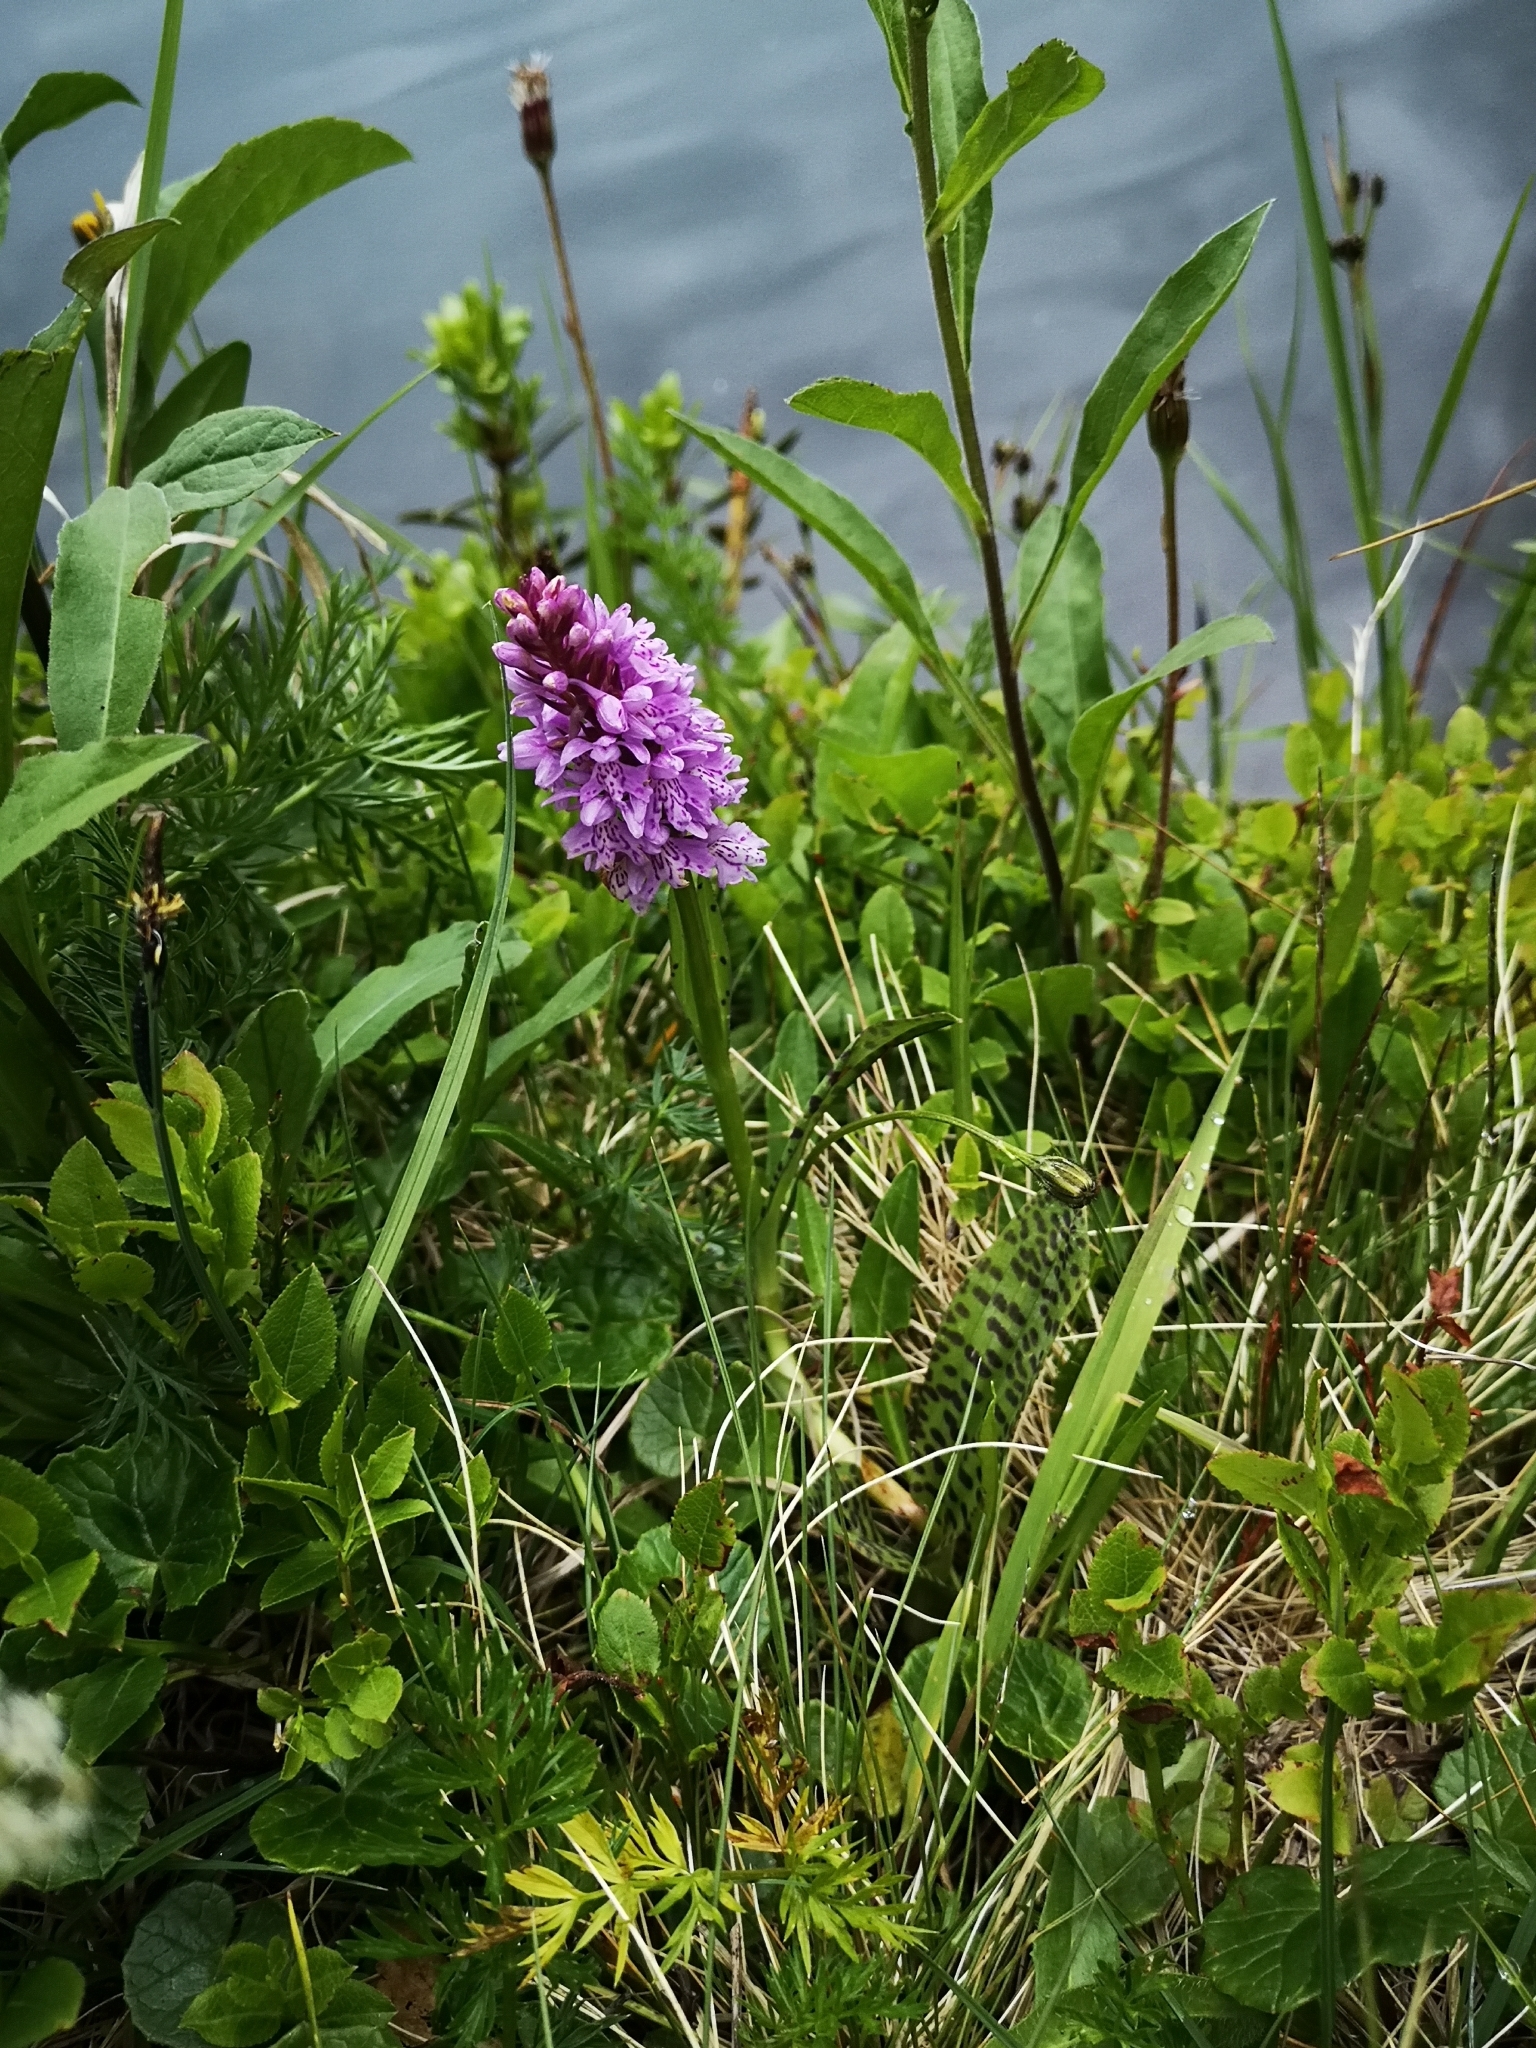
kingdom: Plantae
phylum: Tracheophyta
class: Liliopsida
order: Asparagales
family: Orchidaceae
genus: Dactylorhiza
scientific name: Dactylorhiza maculata
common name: Heath spotted-orchid
